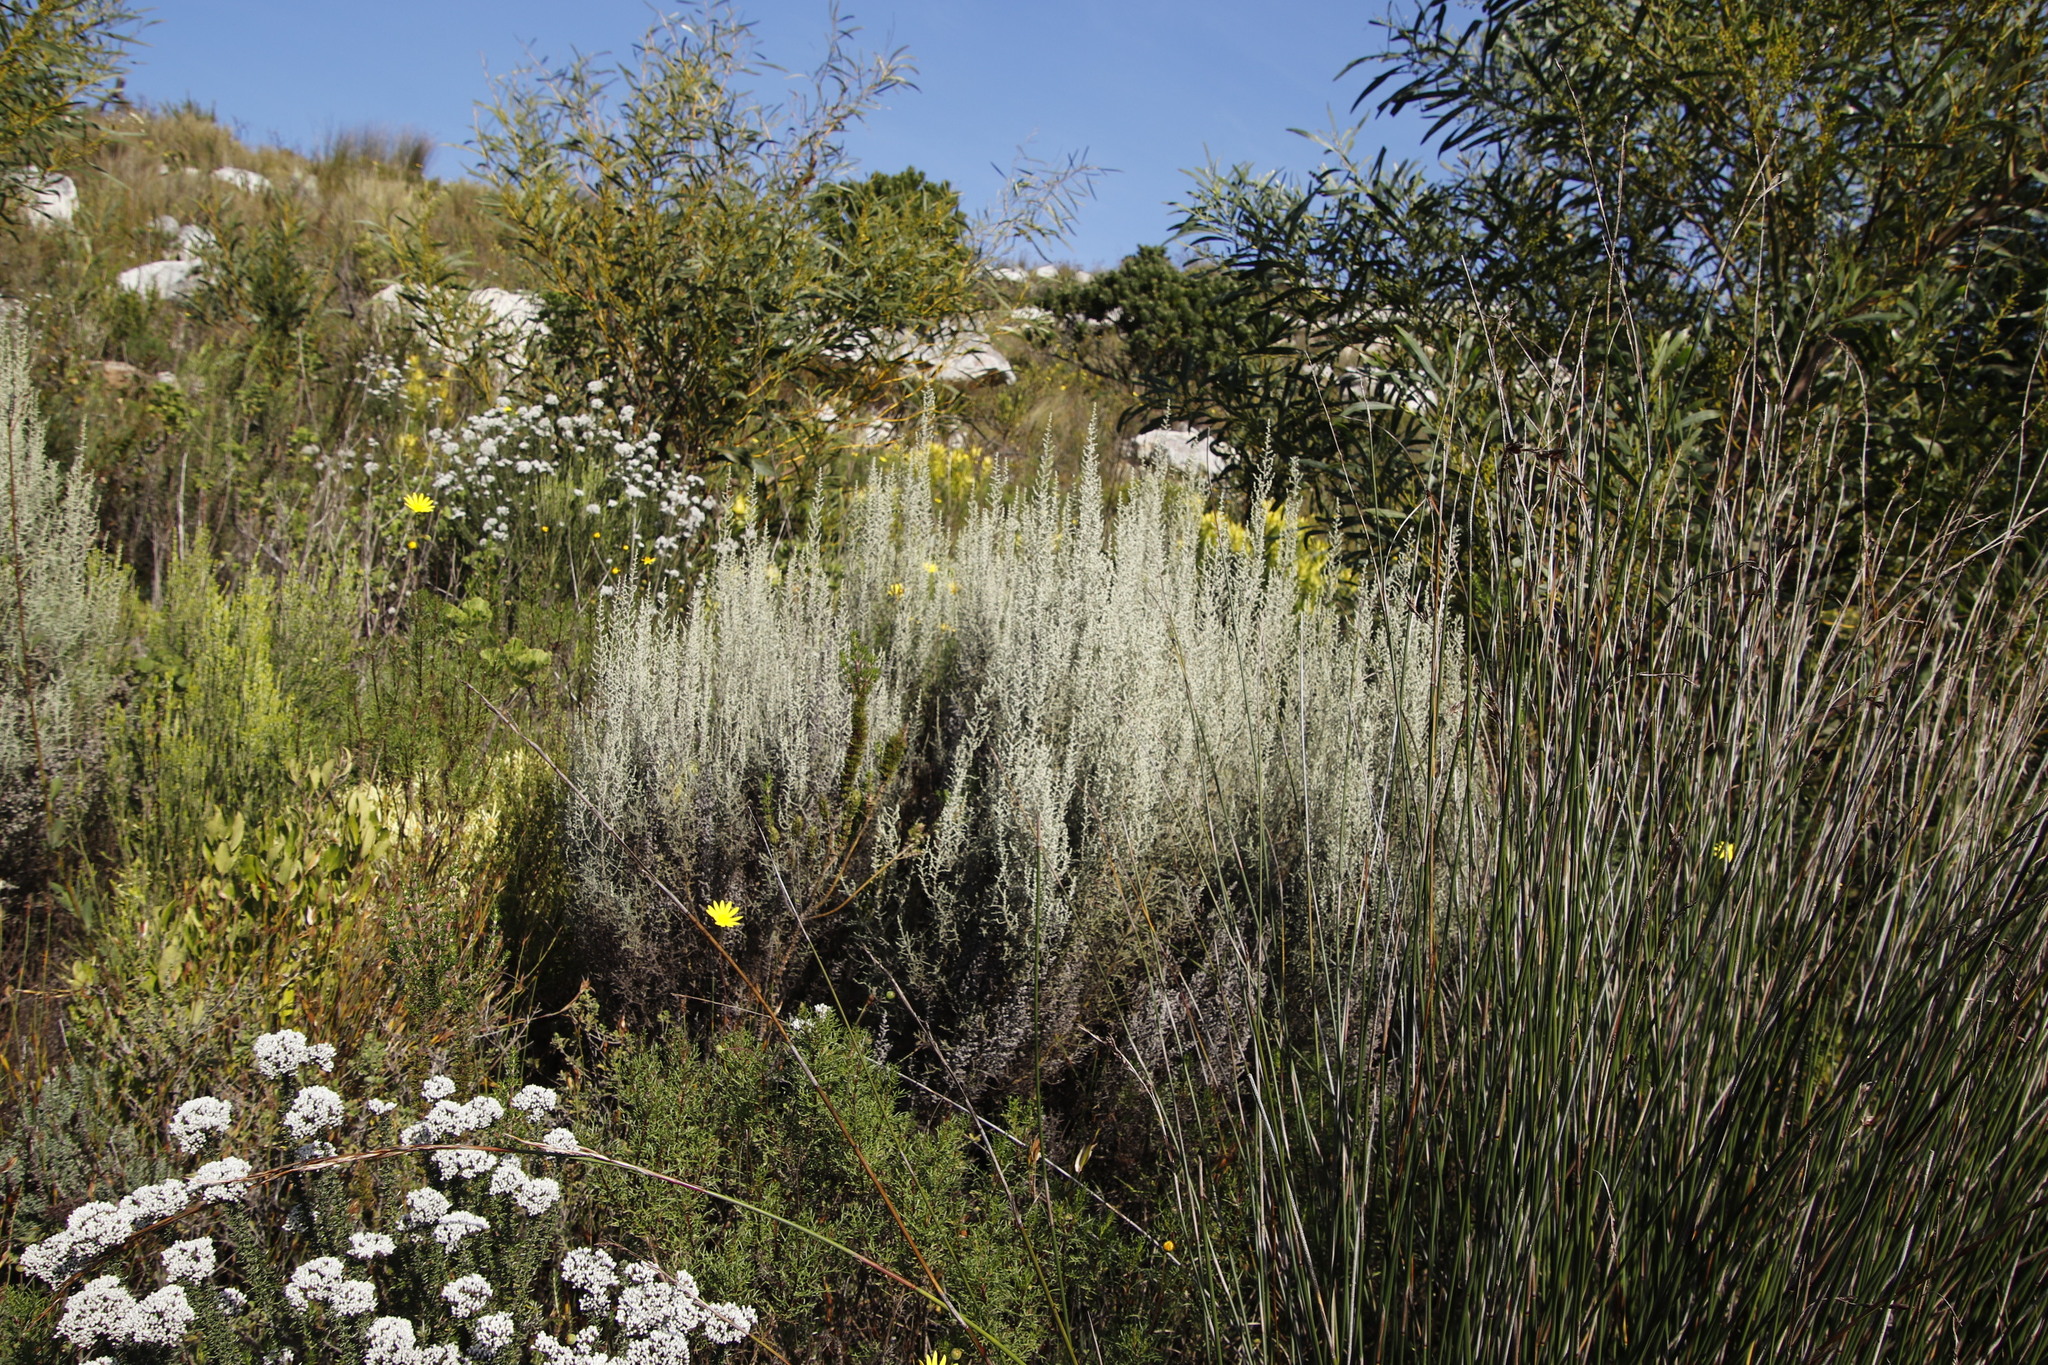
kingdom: Plantae
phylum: Tracheophyta
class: Magnoliopsida
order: Gentianales
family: Rubiaceae
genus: Anthospermum
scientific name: Anthospermum aethiopicum
